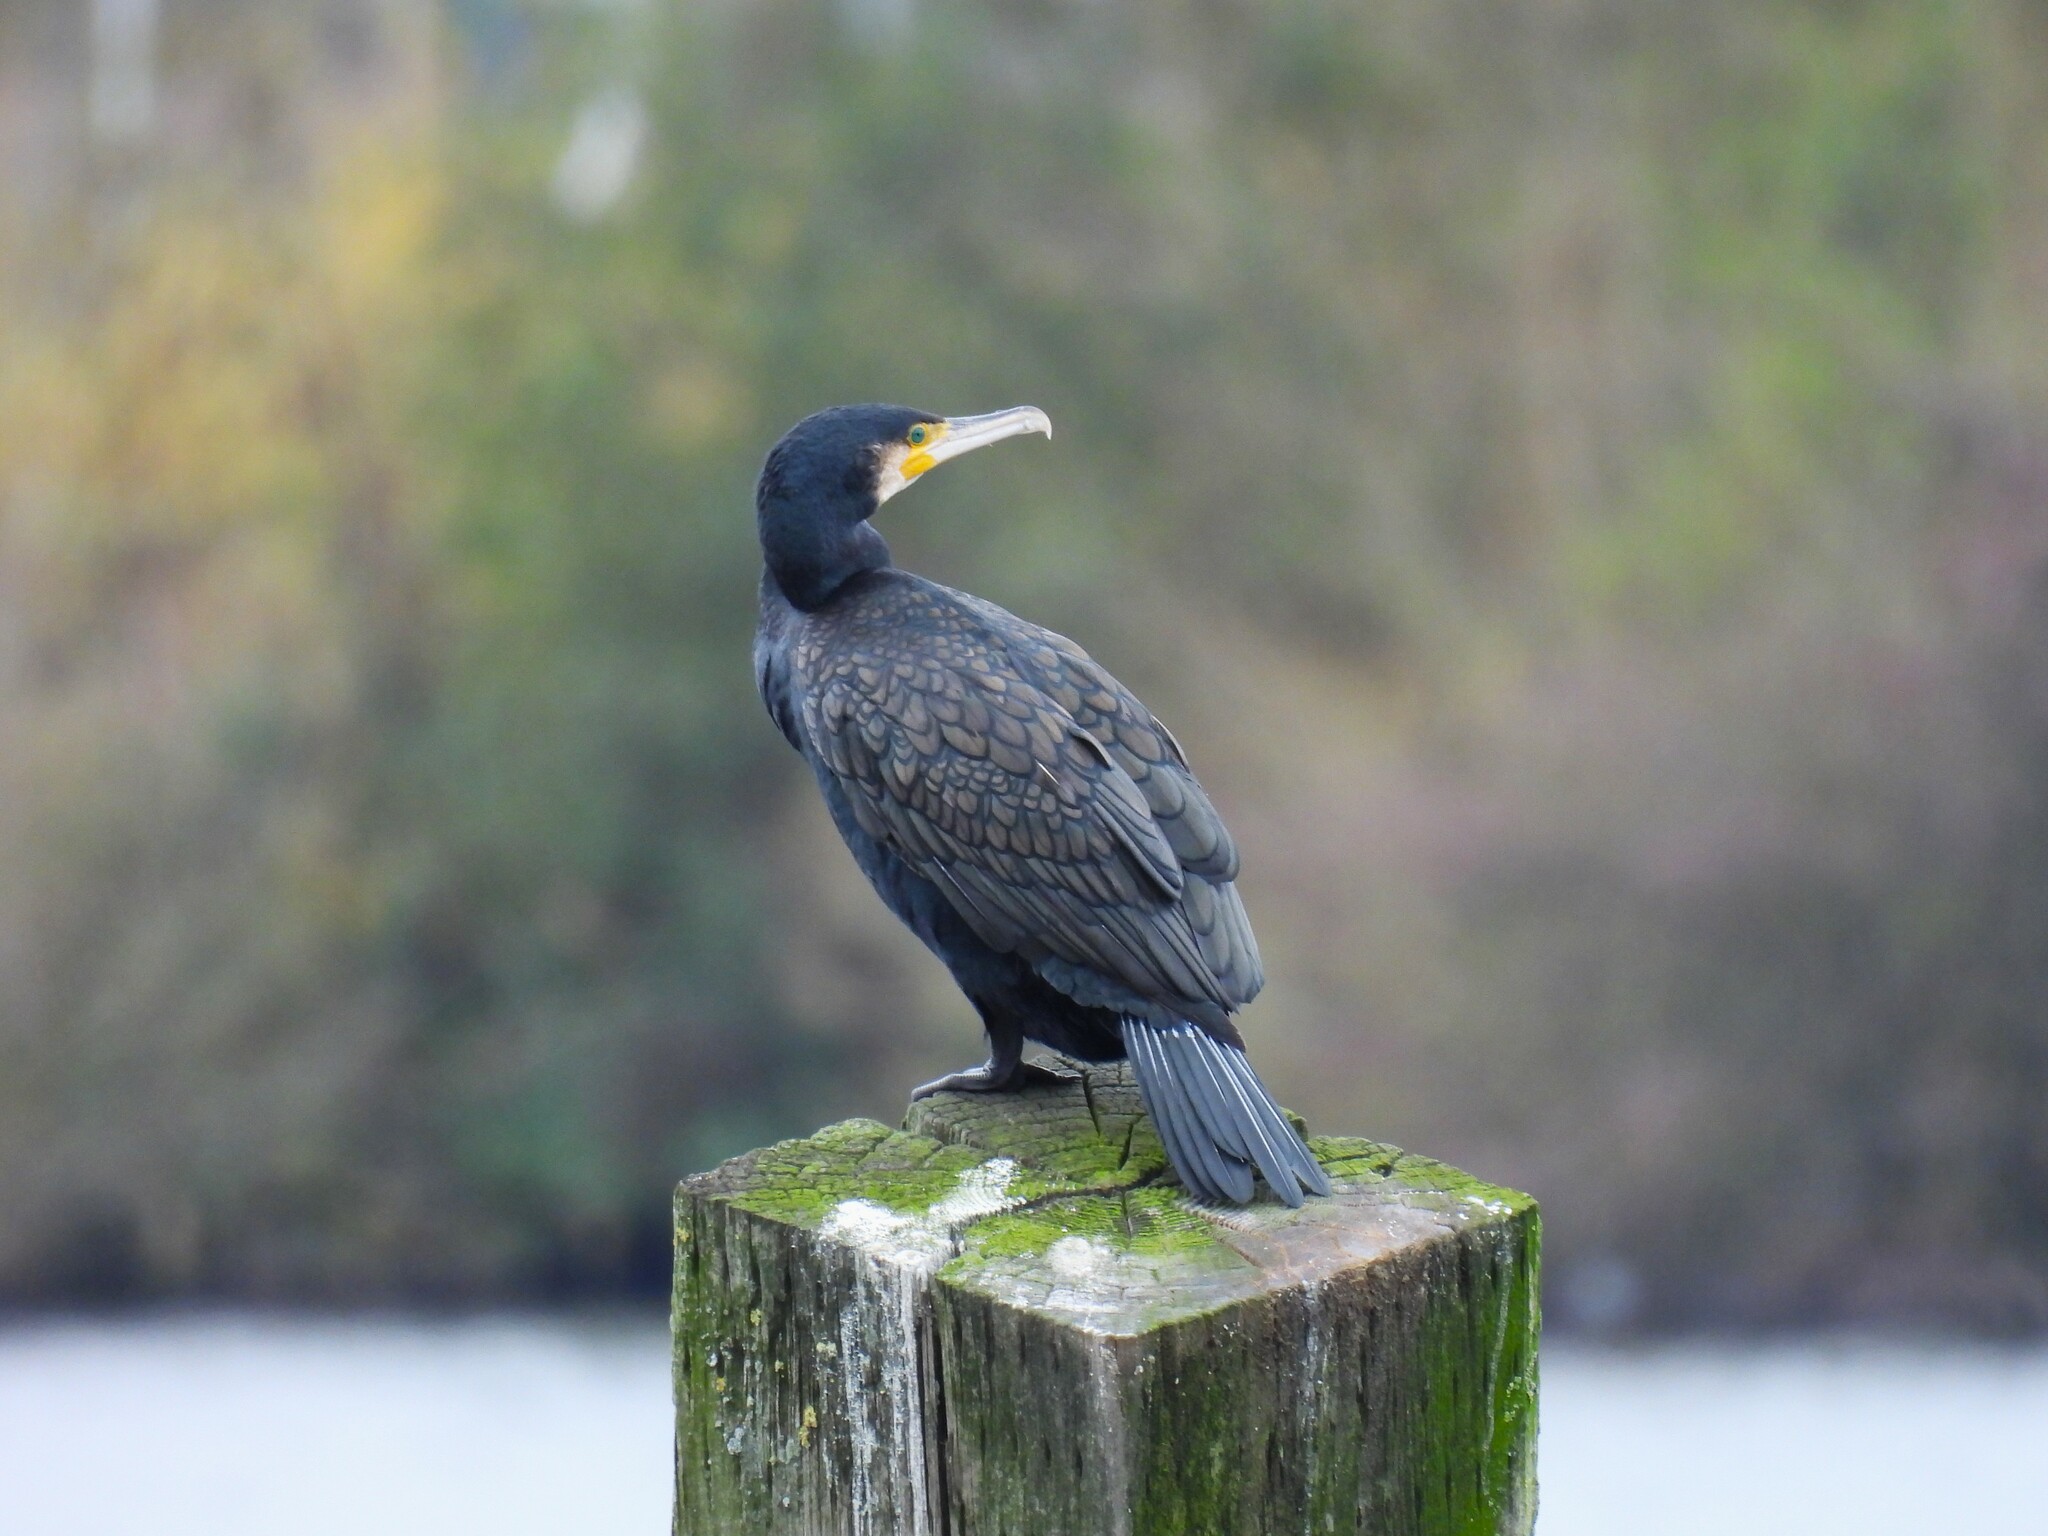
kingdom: Animalia
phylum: Chordata
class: Aves
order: Suliformes
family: Phalacrocoracidae
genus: Phalacrocorax
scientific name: Phalacrocorax carbo
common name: Great cormorant
